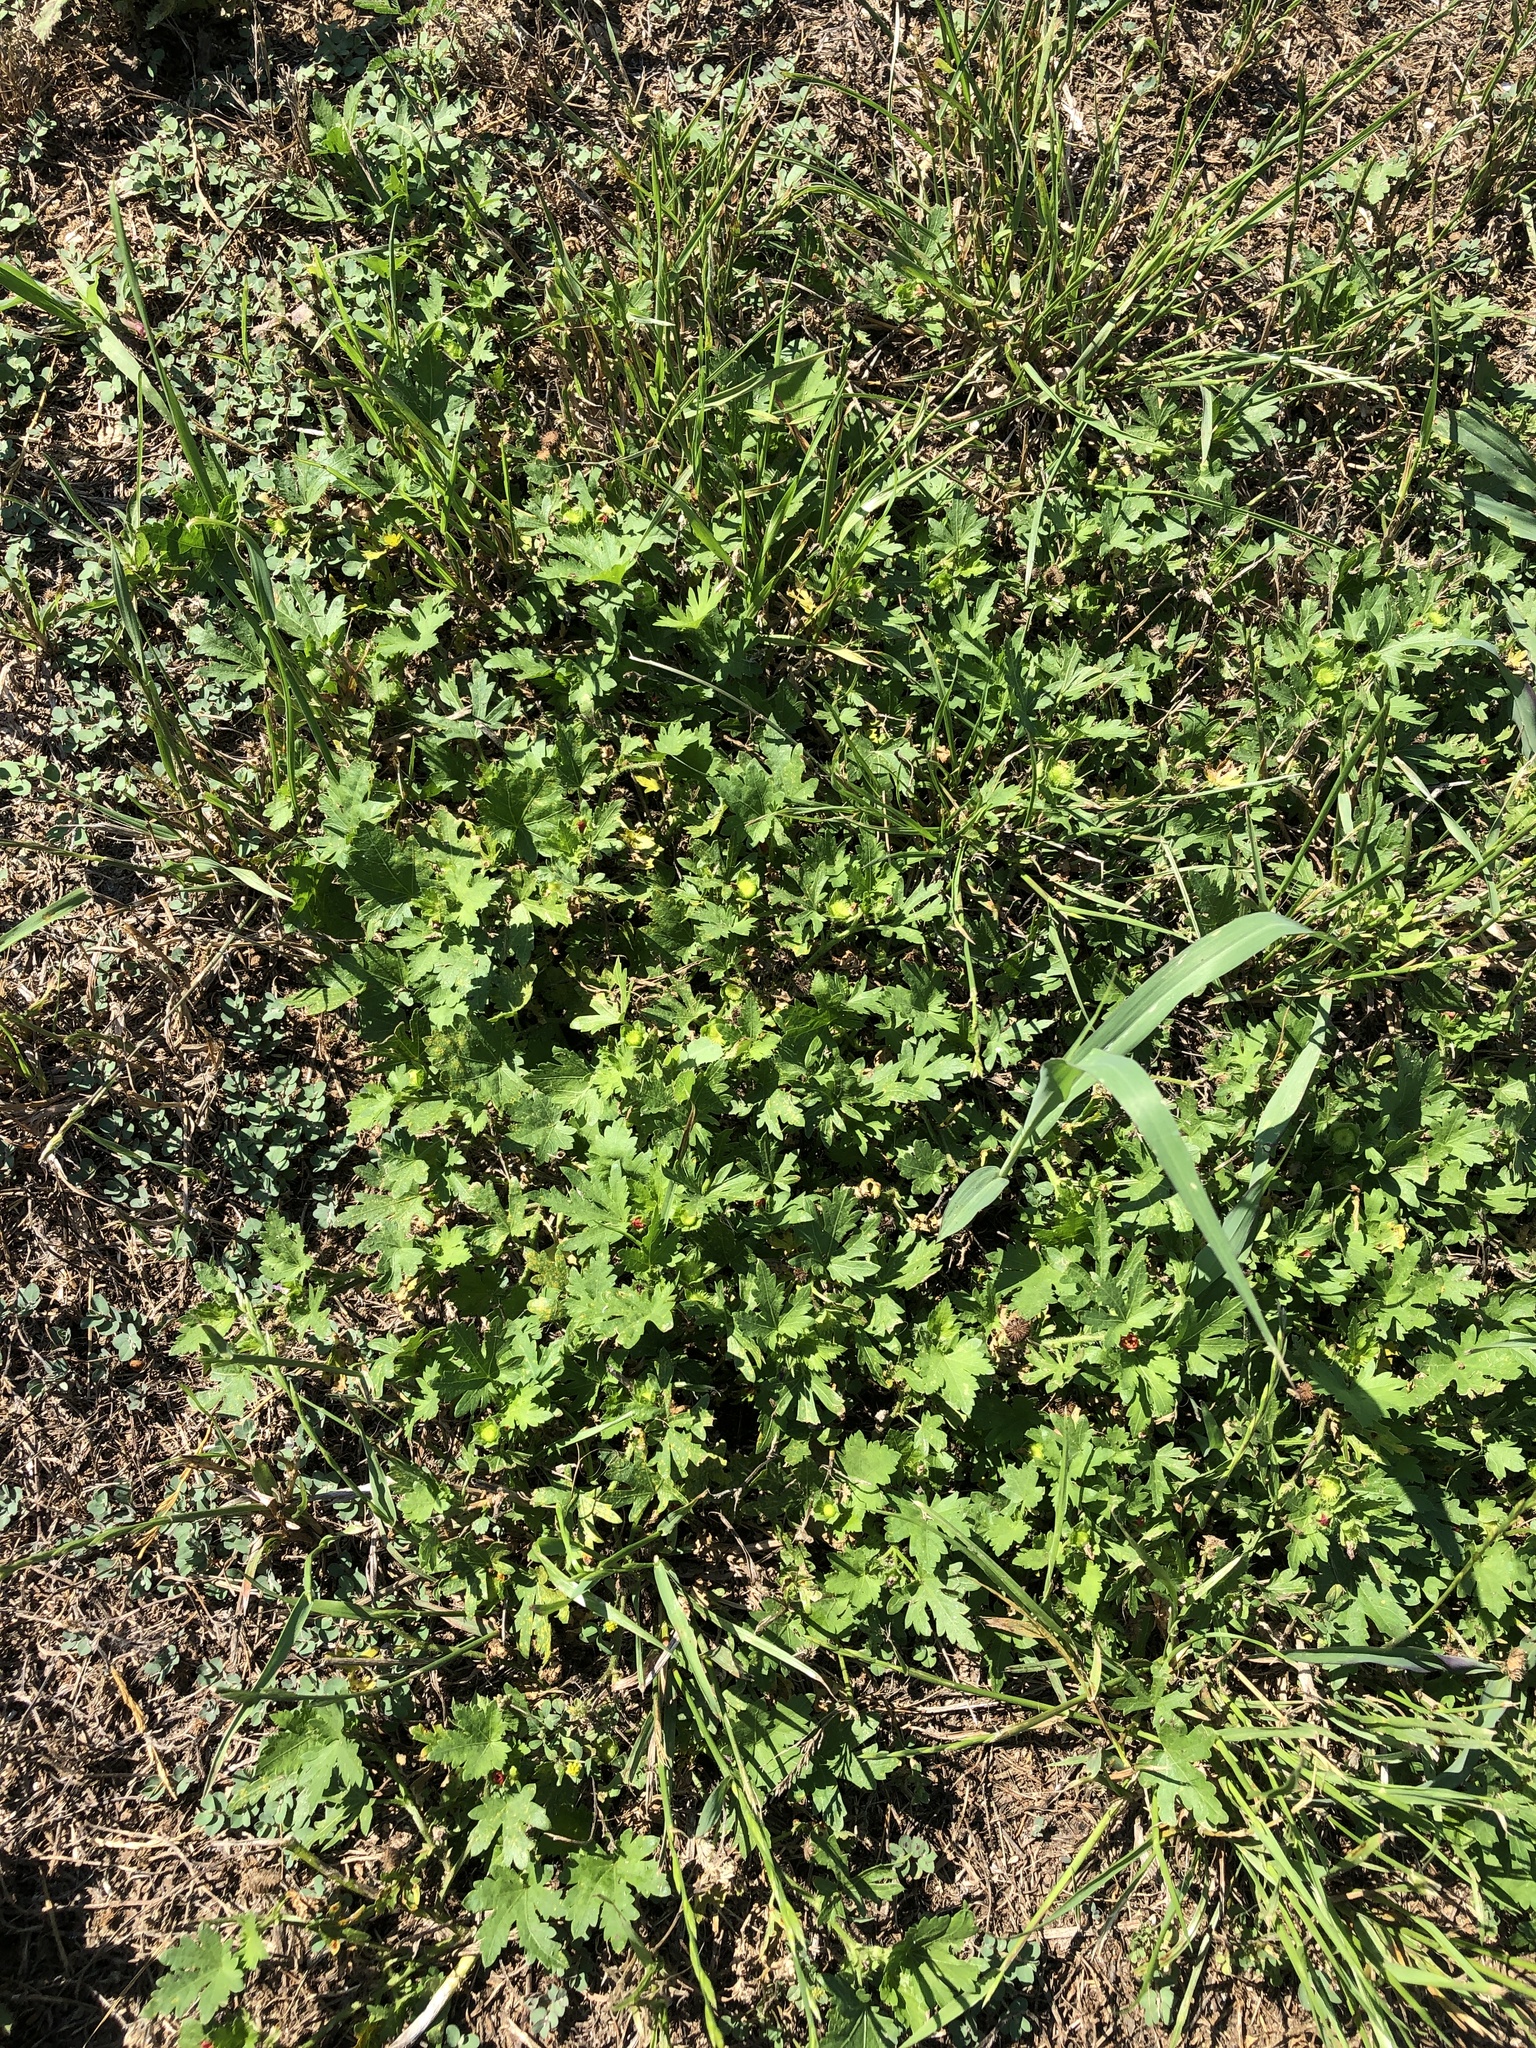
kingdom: Plantae
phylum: Tracheophyta
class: Magnoliopsida
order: Malvales
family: Malvaceae
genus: Modiola
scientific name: Modiola caroliniana
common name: Carolina bristlemallow
